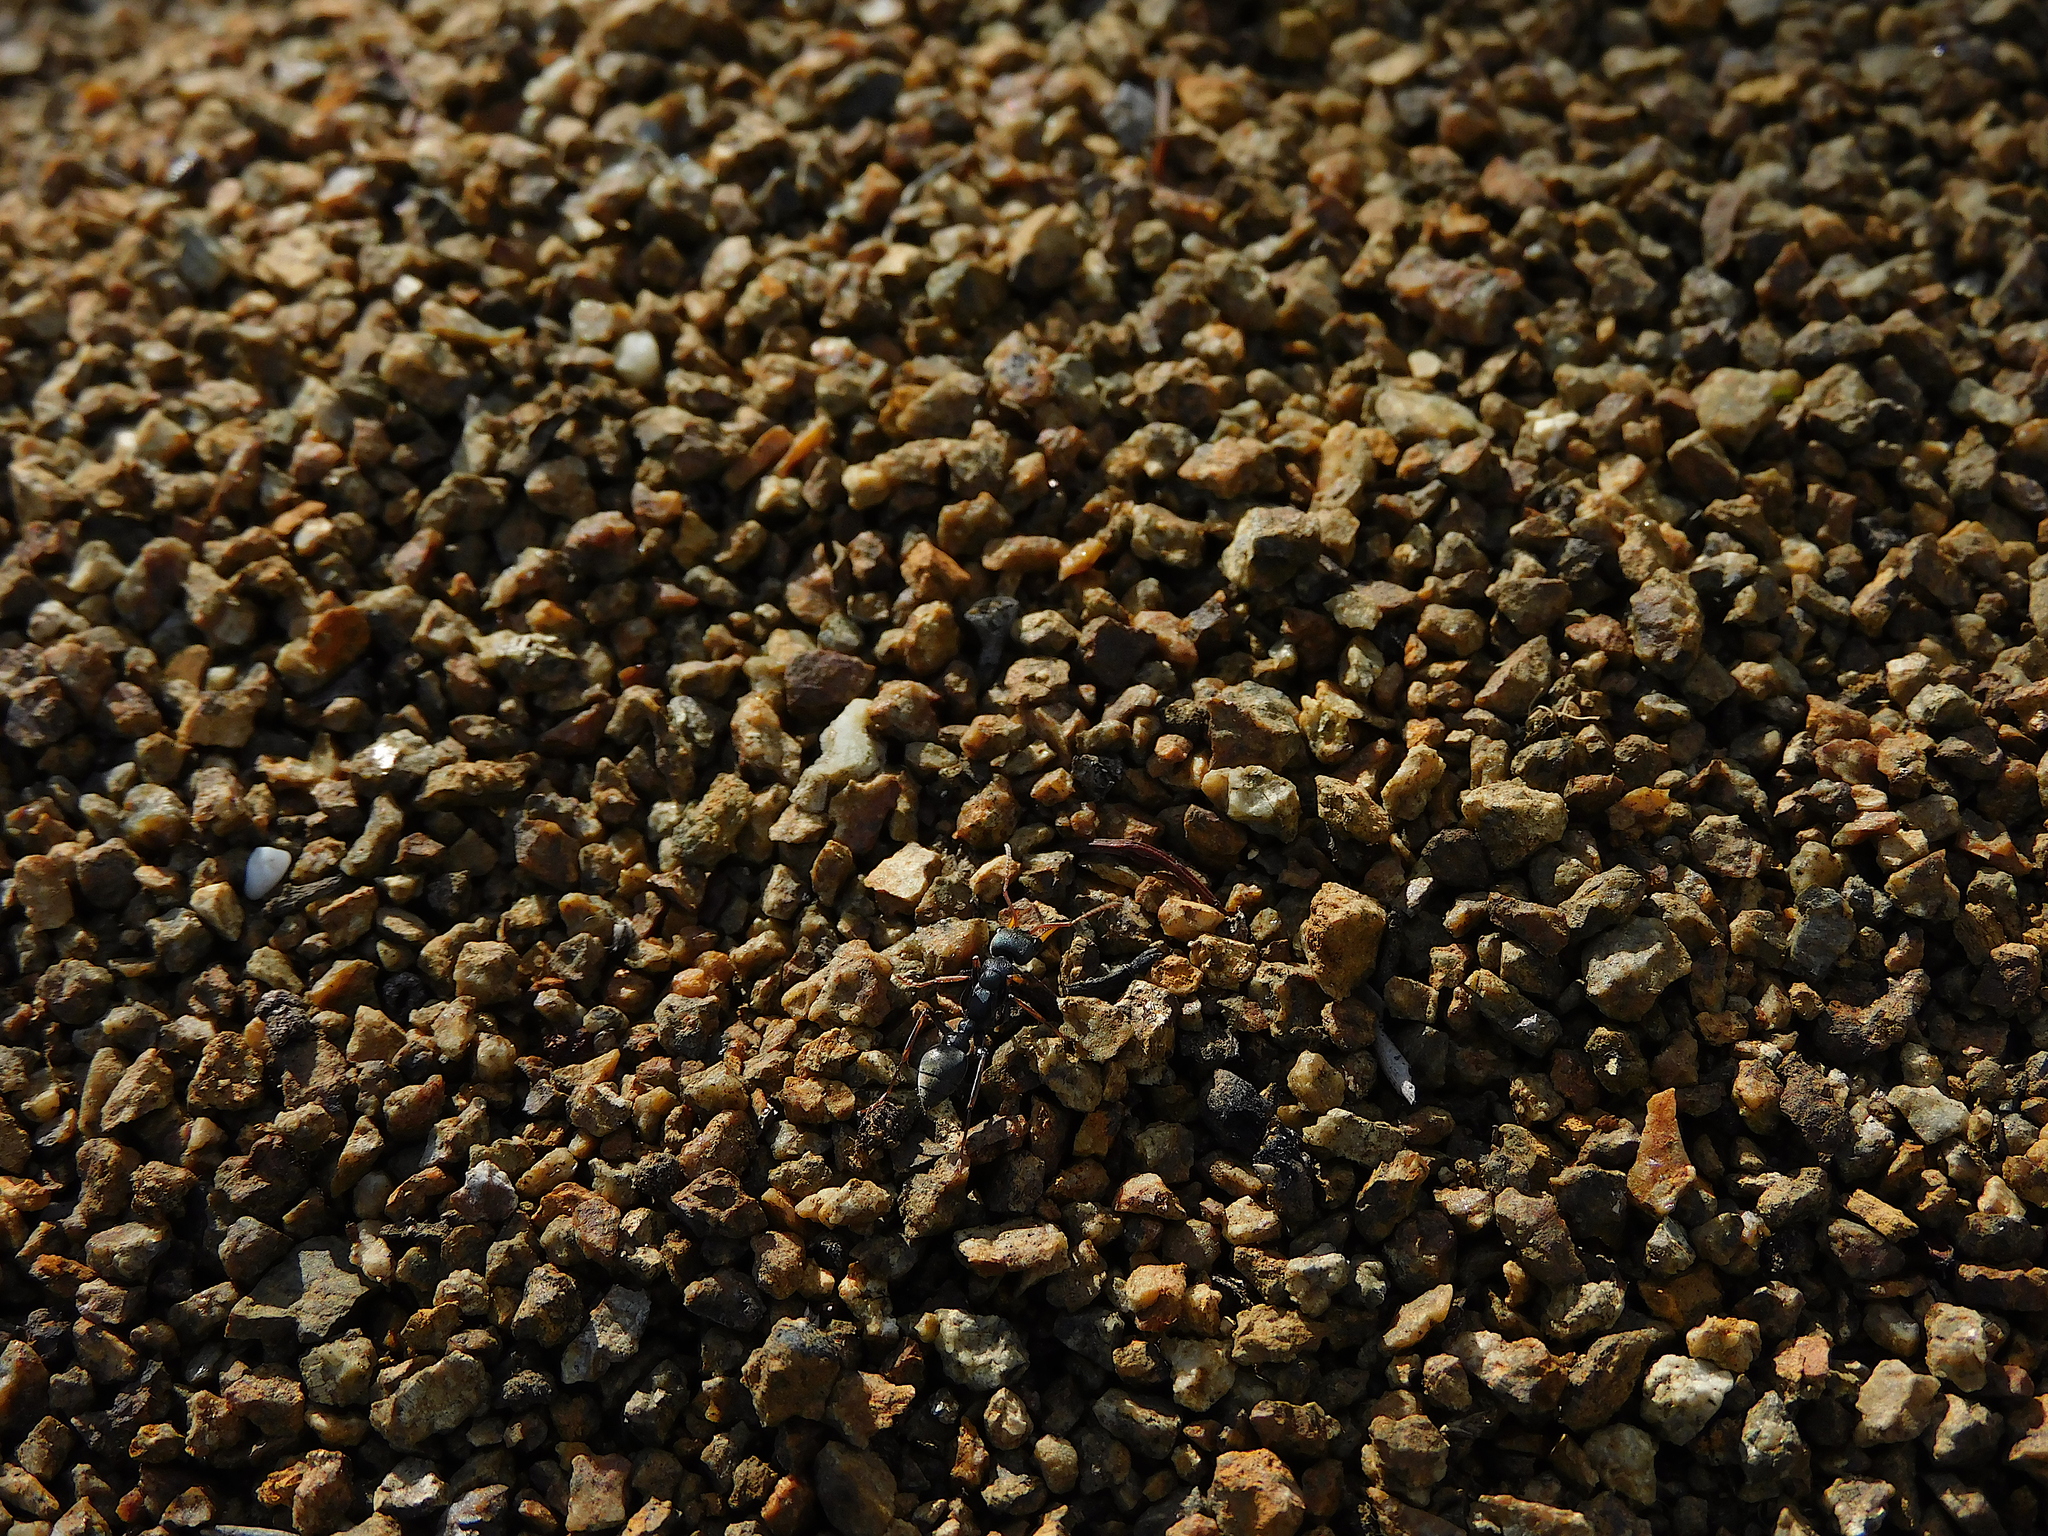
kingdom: Animalia
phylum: Arthropoda
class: Insecta
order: Hymenoptera
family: Formicidae
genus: Myrmecia
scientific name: Myrmecia pilosula
